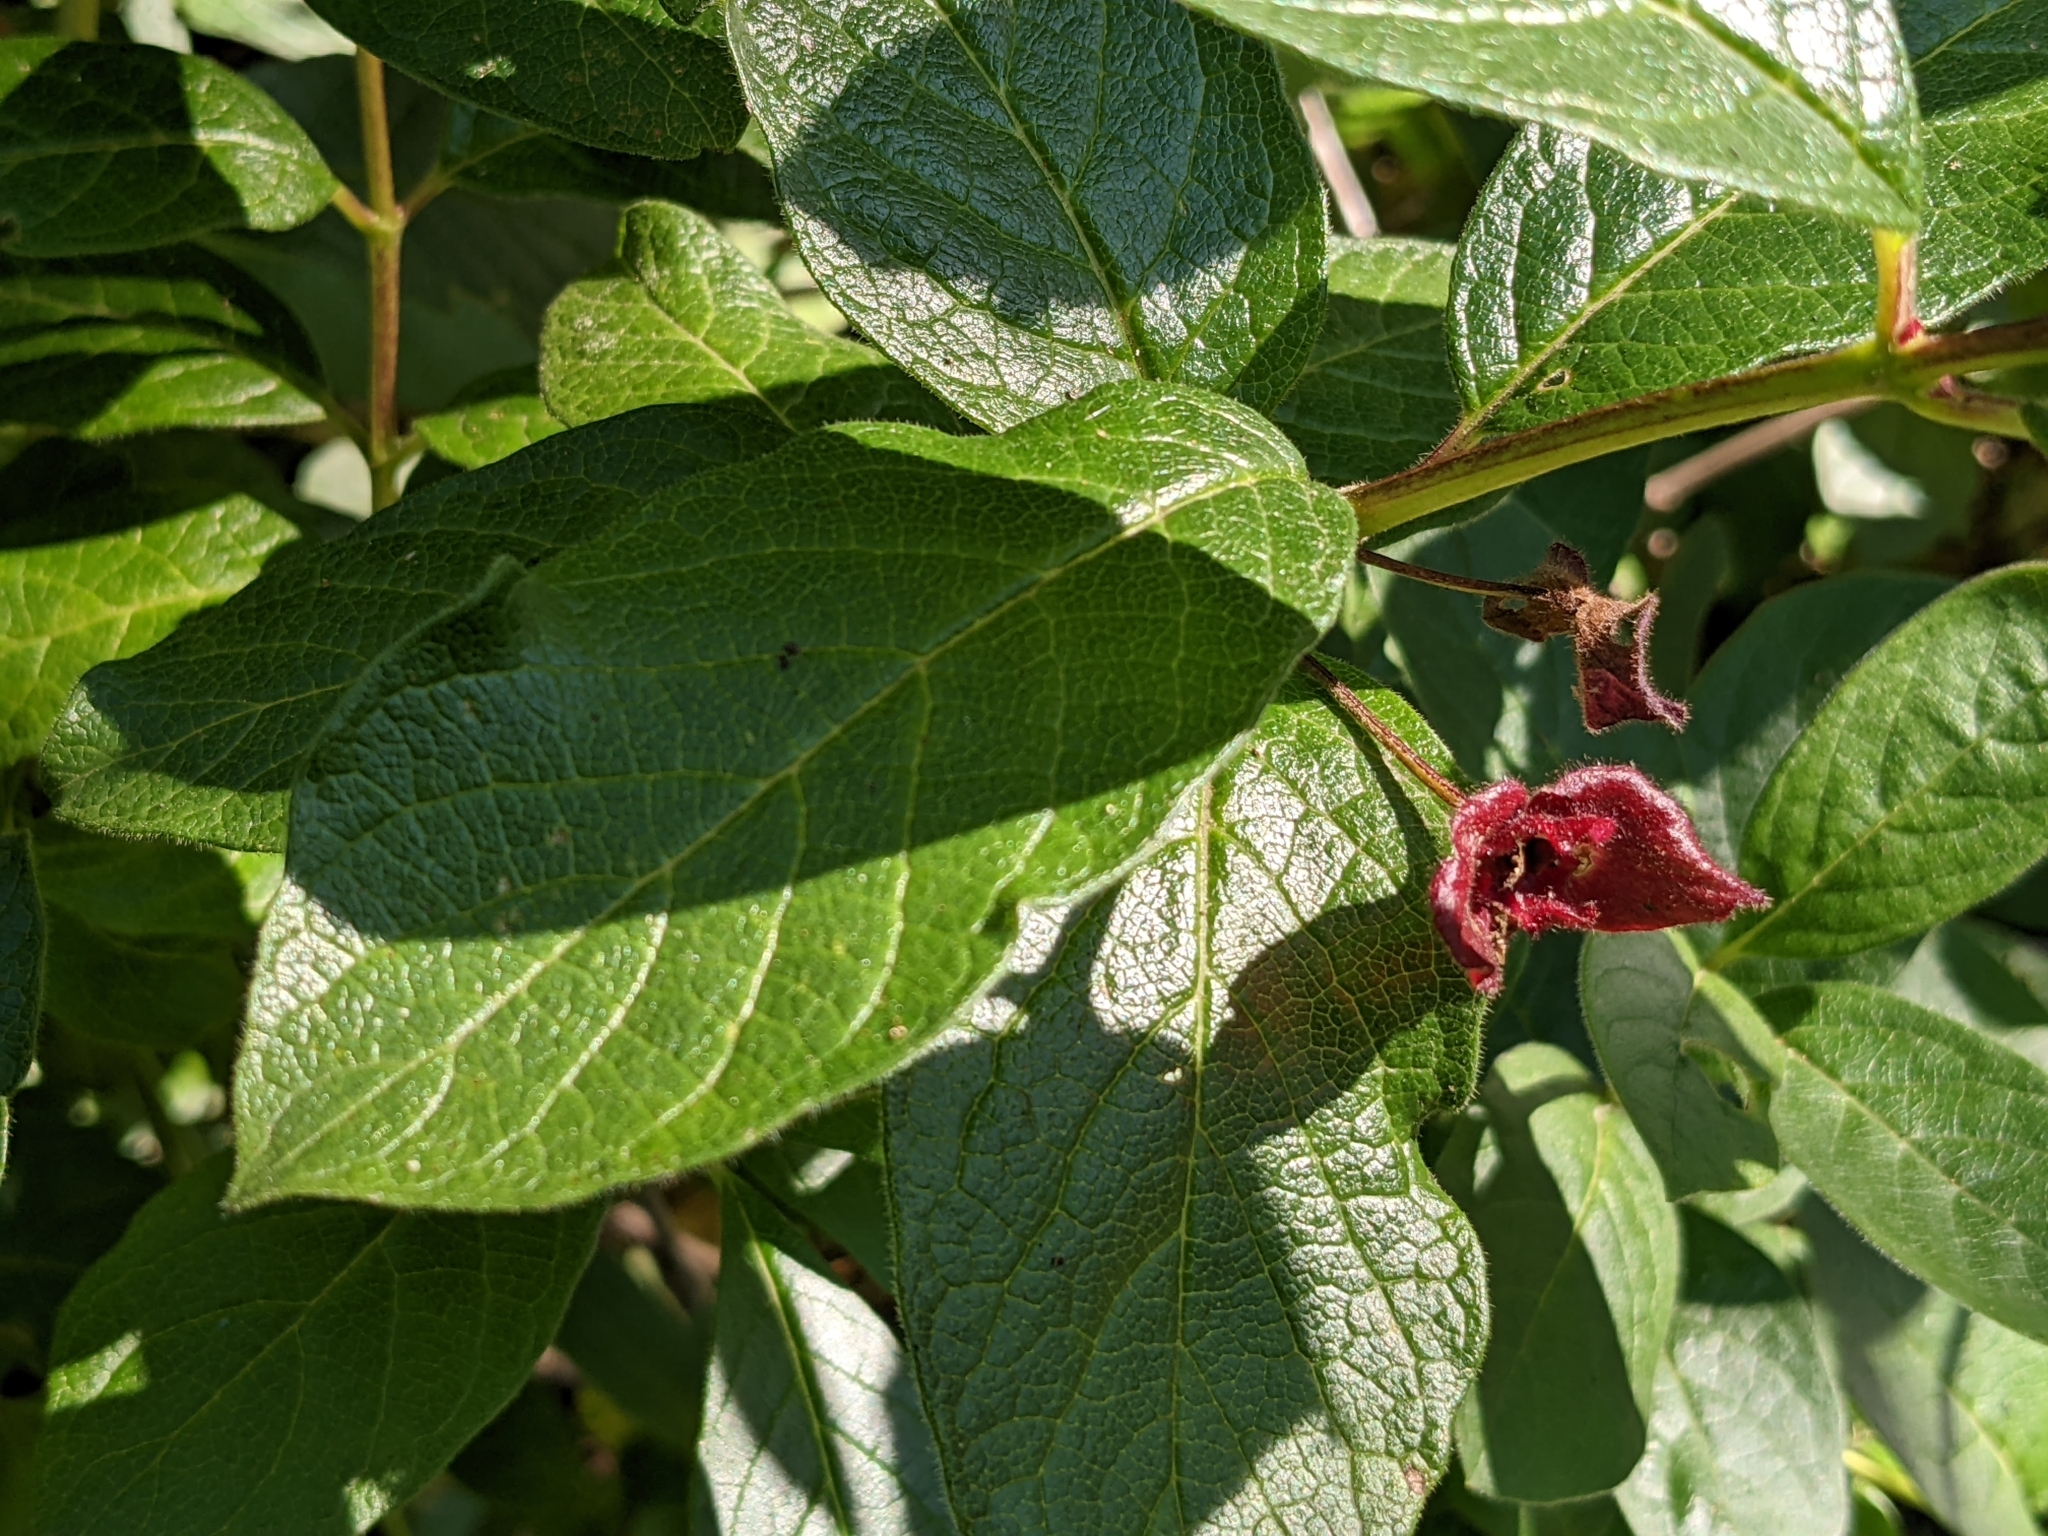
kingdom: Plantae
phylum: Tracheophyta
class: Magnoliopsida
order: Dipsacales
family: Caprifoliaceae
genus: Lonicera
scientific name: Lonicera involucrata
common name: Californian honeysuckle
